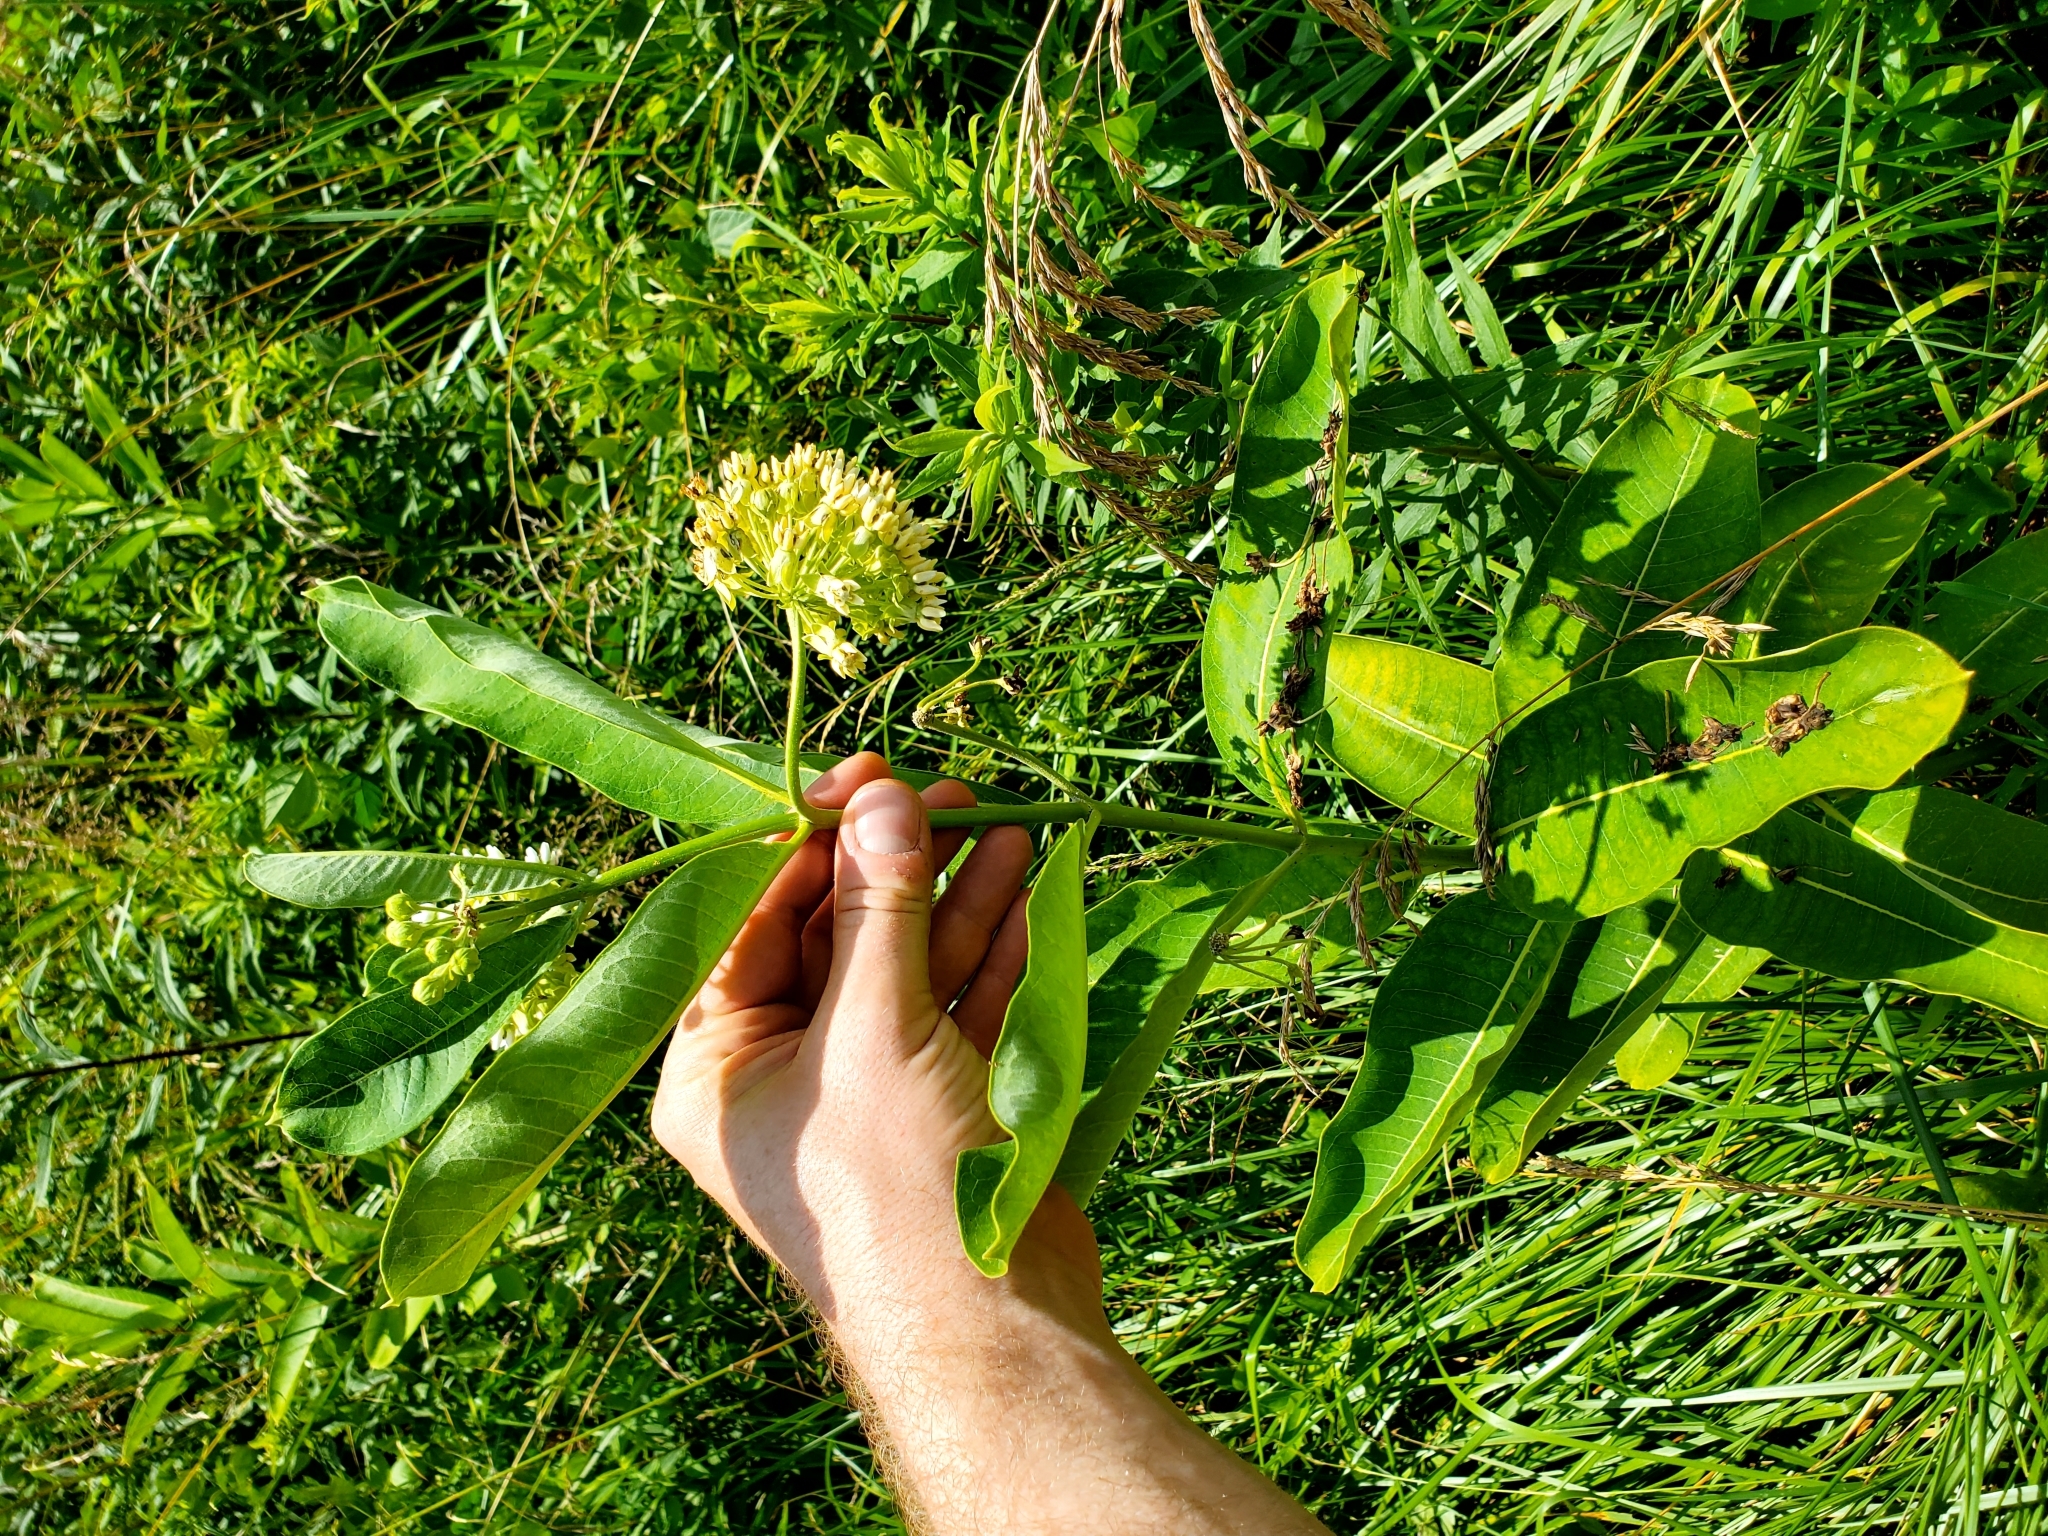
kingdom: Plantae
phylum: Tracheophyta
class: Magnoliopsida
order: Gentianales
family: Apocynaceae
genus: Asclepias
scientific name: Asclepias syriaca
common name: Common milkweed
